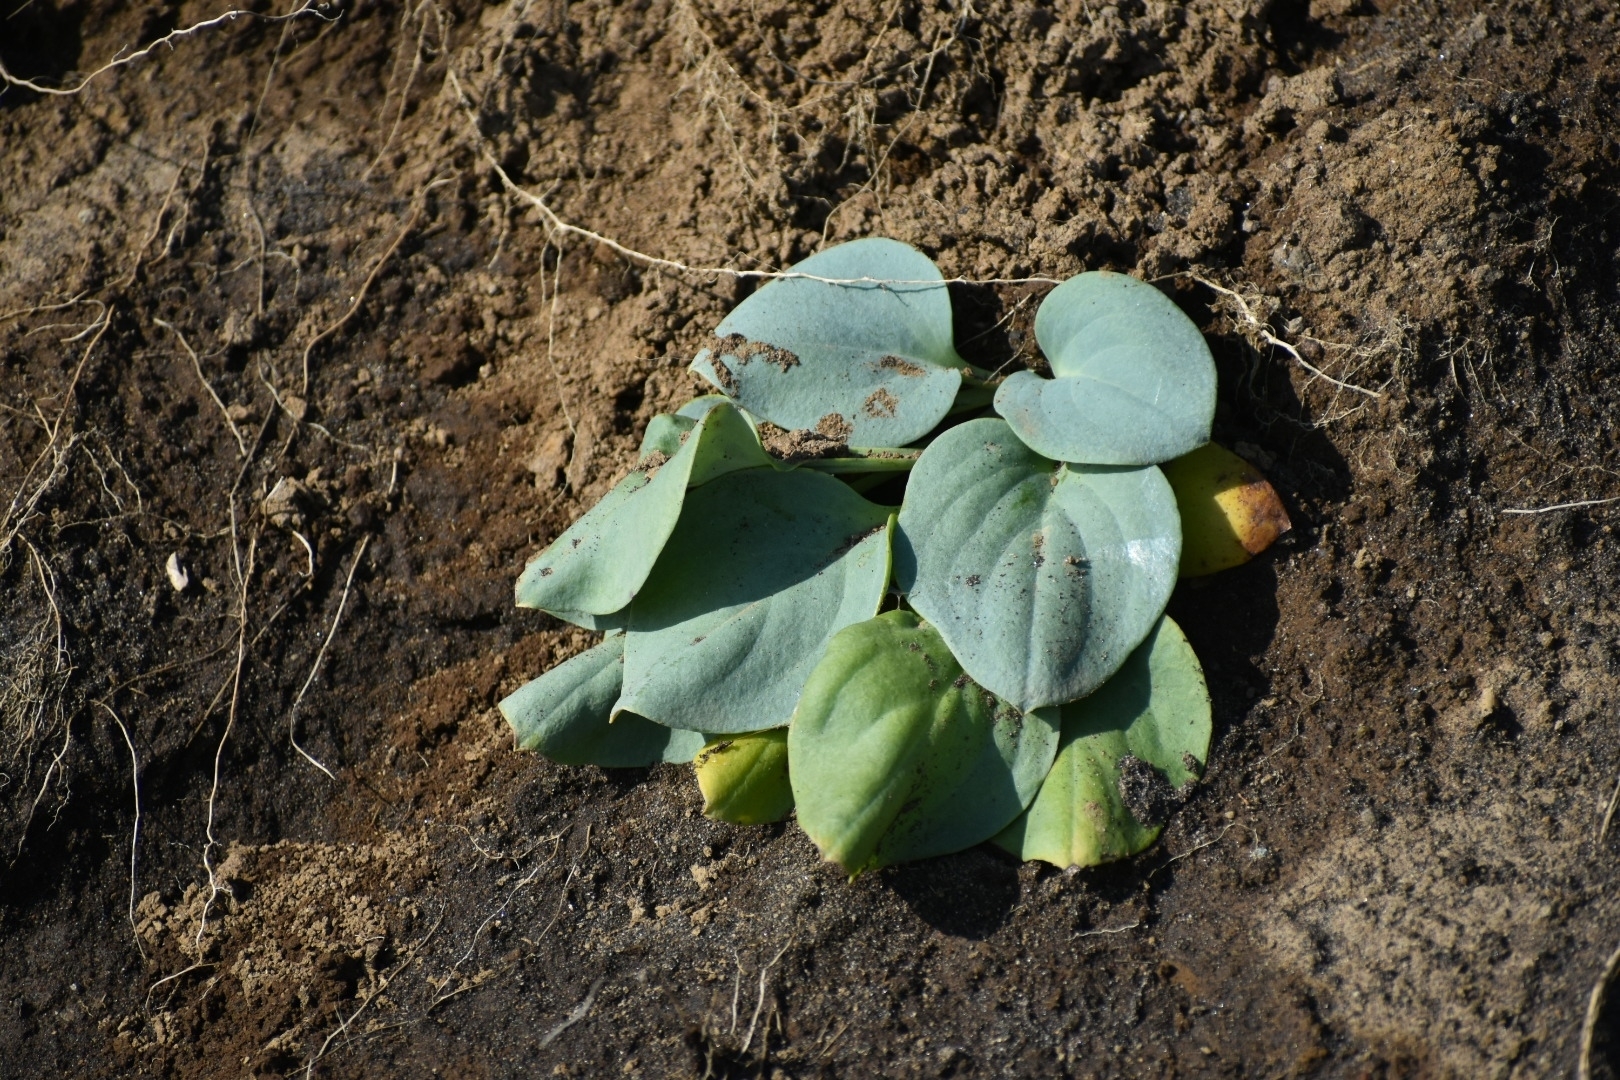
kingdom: Plantae
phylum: Tracheophyta
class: Magnoliopsida
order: Boraginales
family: Boraginaceae
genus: Mertensia
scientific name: Mertensia maritima
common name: Oysterplant
